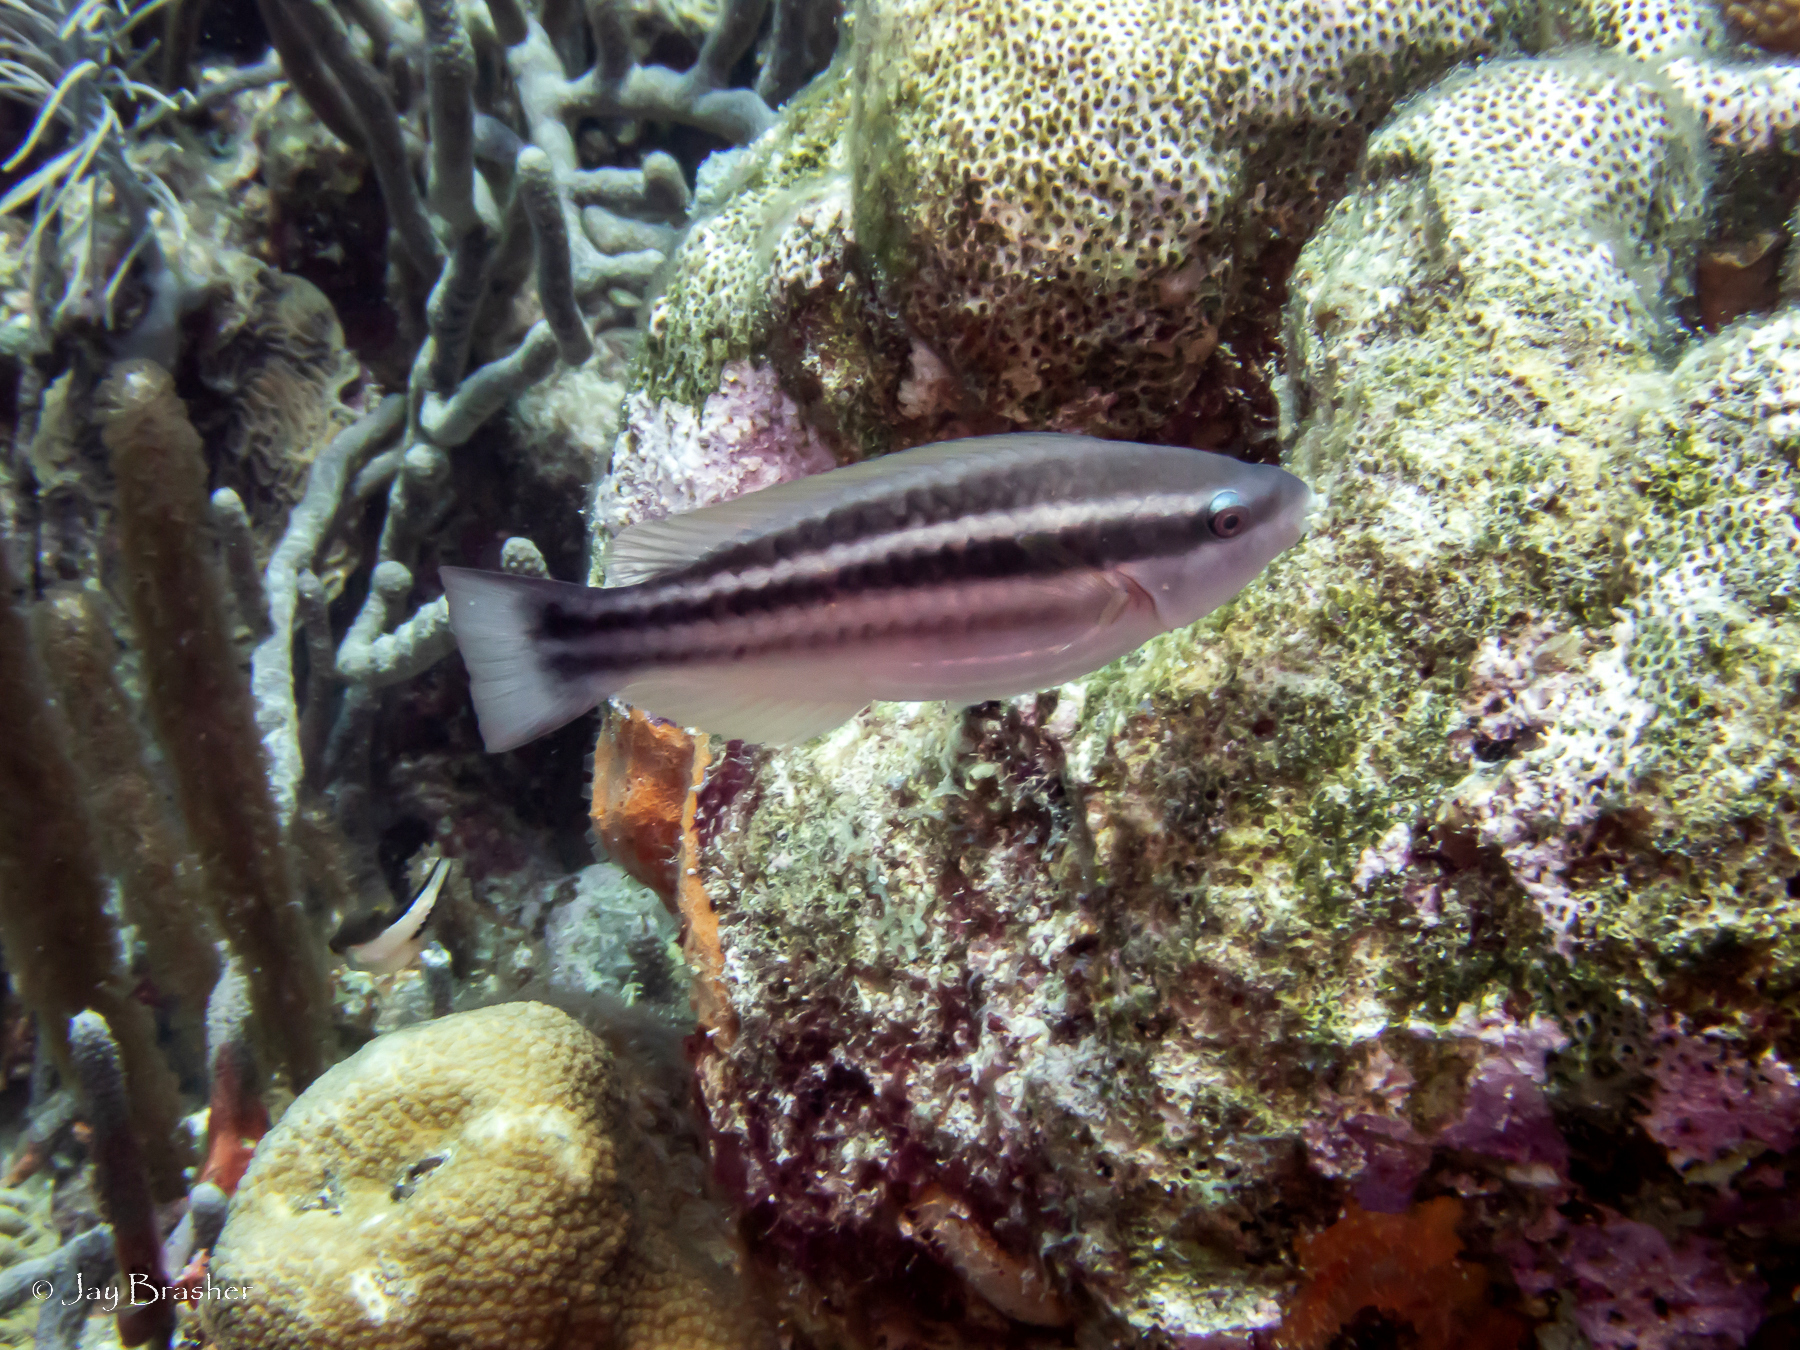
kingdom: Animalia
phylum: Chordata
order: Perciformes
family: Scaridae
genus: Scarus
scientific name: Scarus taeniopterus
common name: Princess parrotfish
